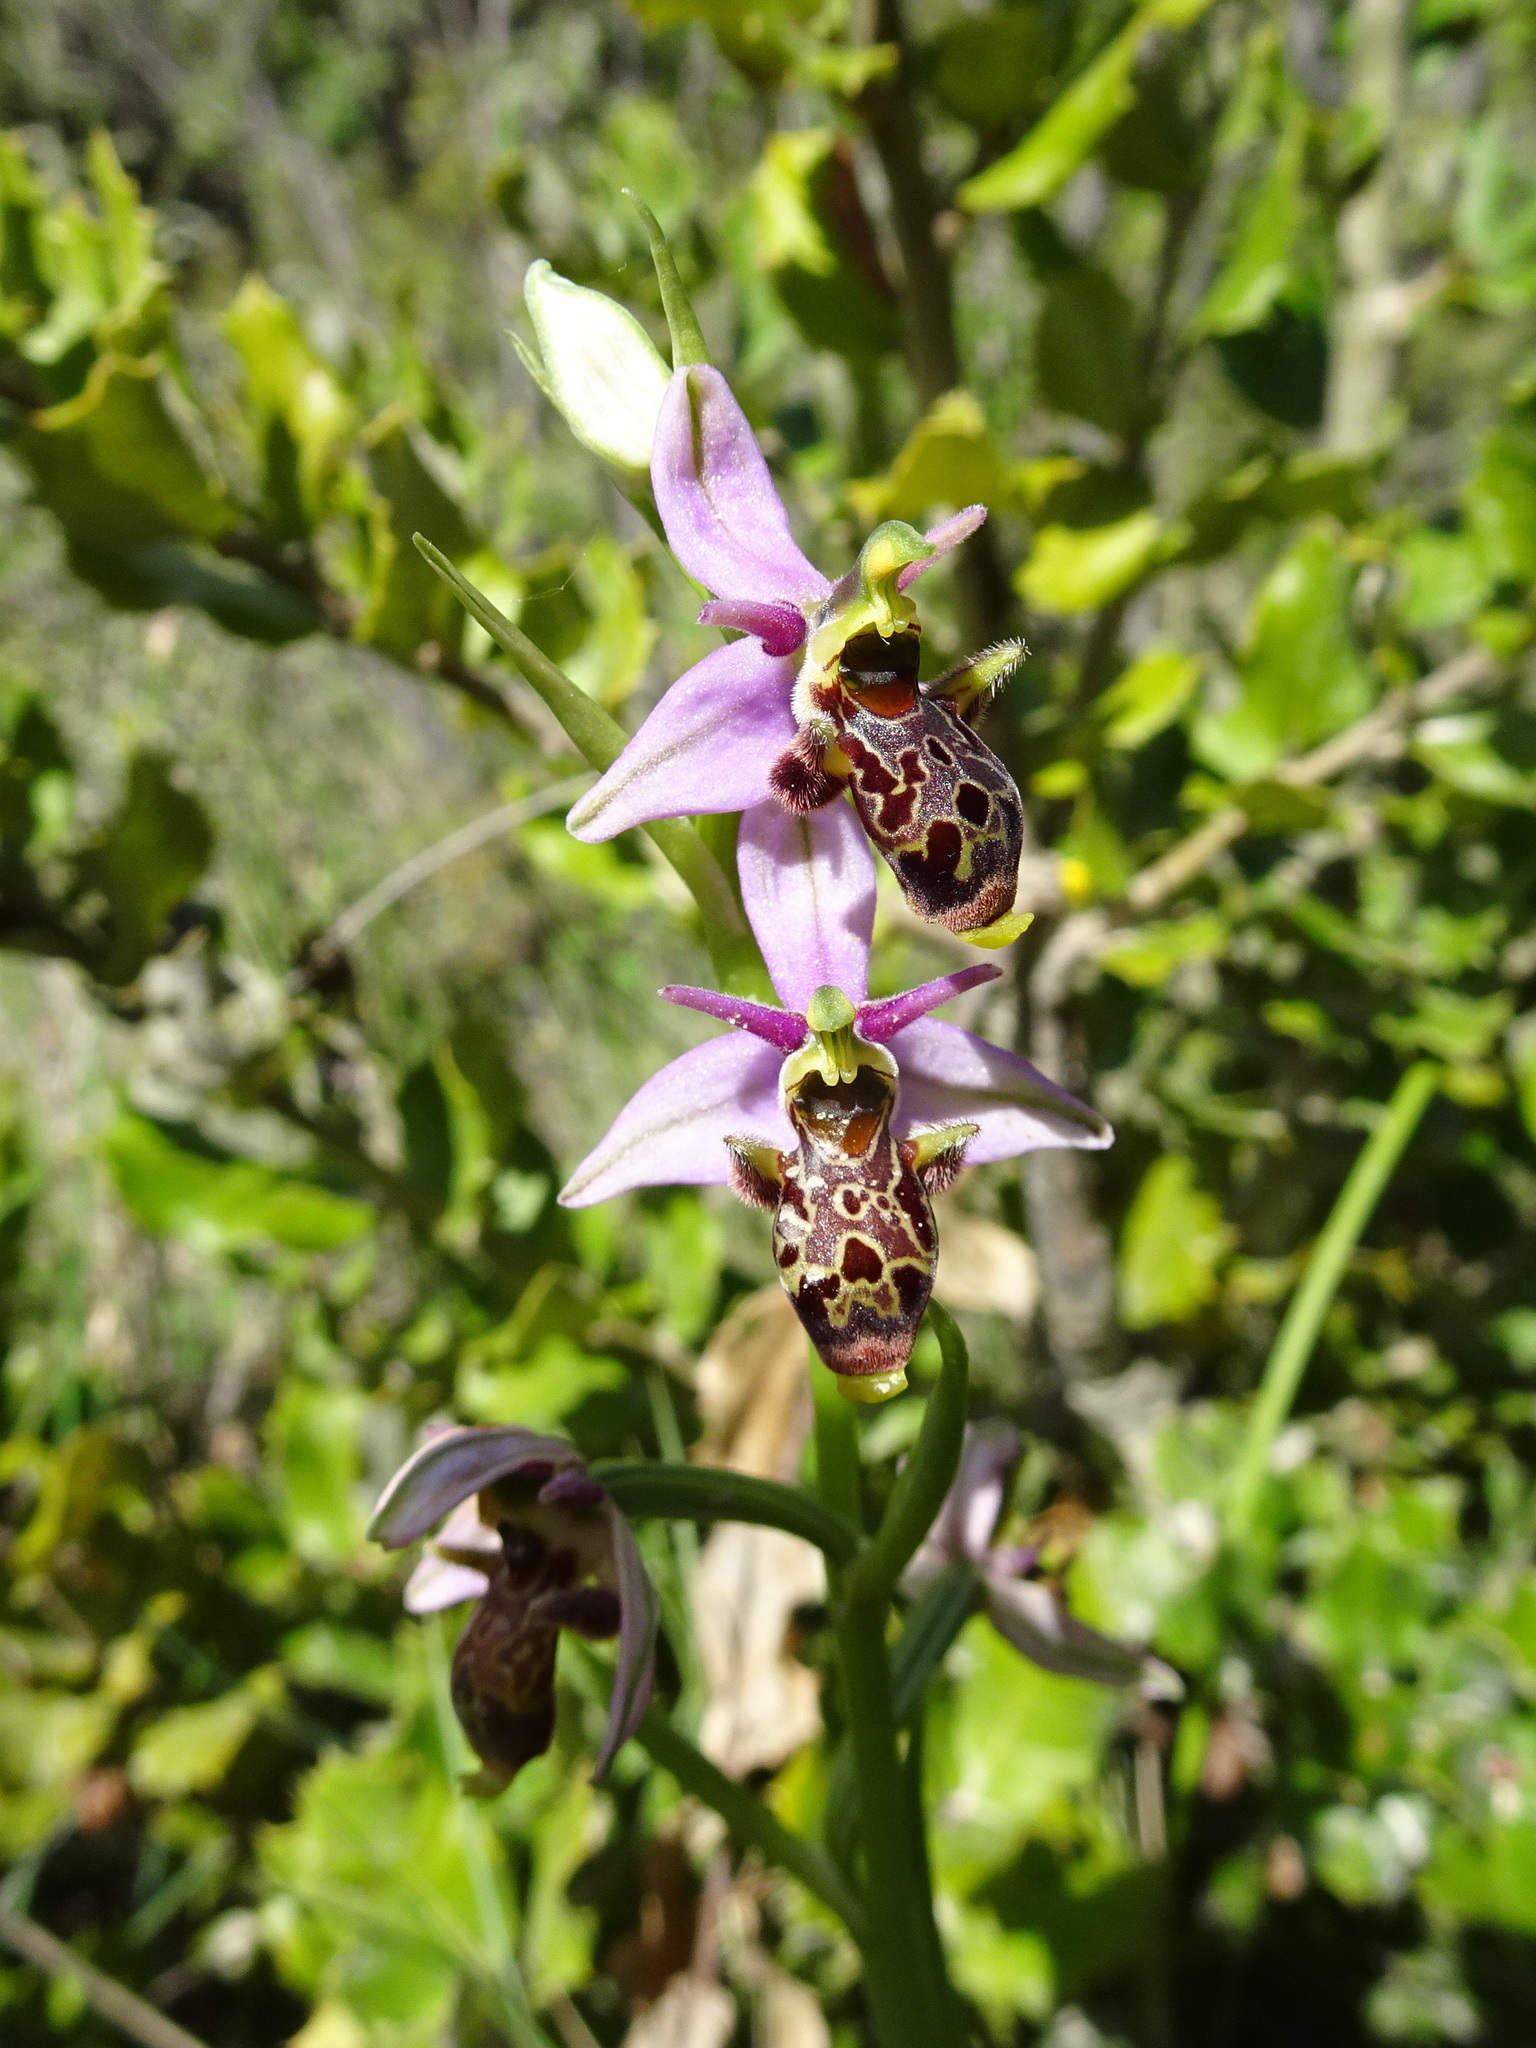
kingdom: Plantae
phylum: Tracheophyta
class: Liliopsida
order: Asparagales
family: Orchidaceae
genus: Ophrys
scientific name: Ophrys scolopax
